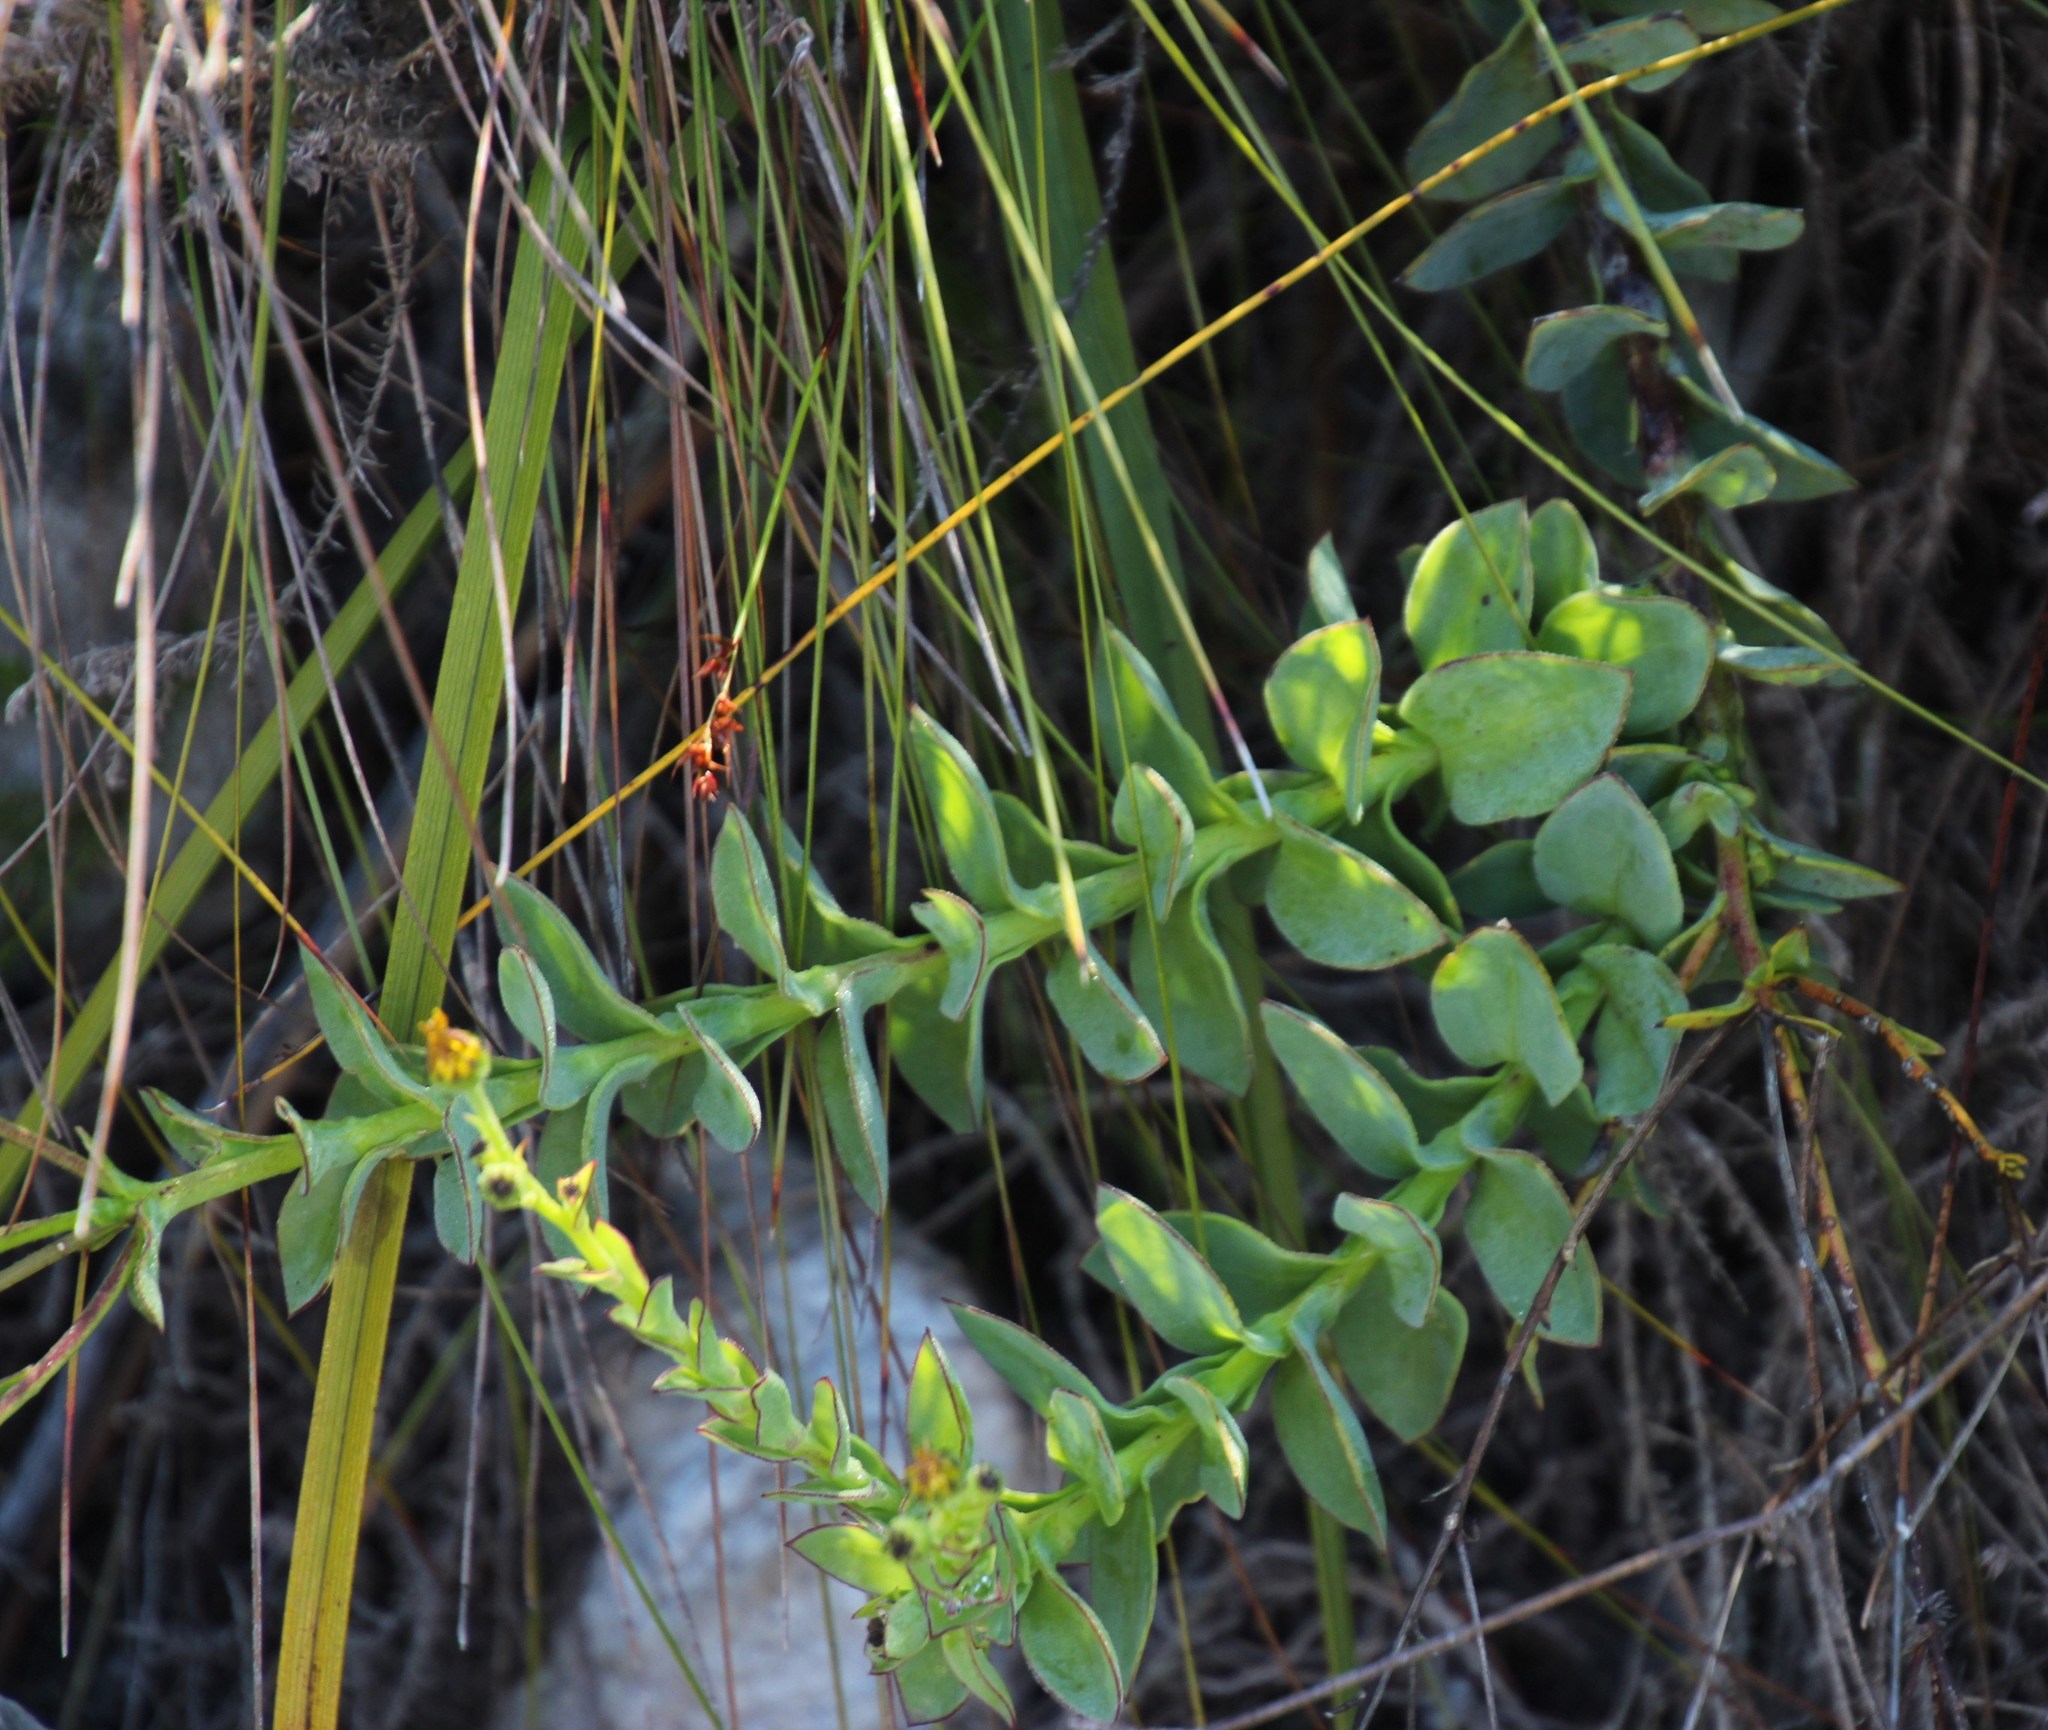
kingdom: Plantae
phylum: Tracheophyta
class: Magnoliopsida
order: Asterales
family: Asteraceae
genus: Osteospermum
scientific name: Osteospermum polygaloides
